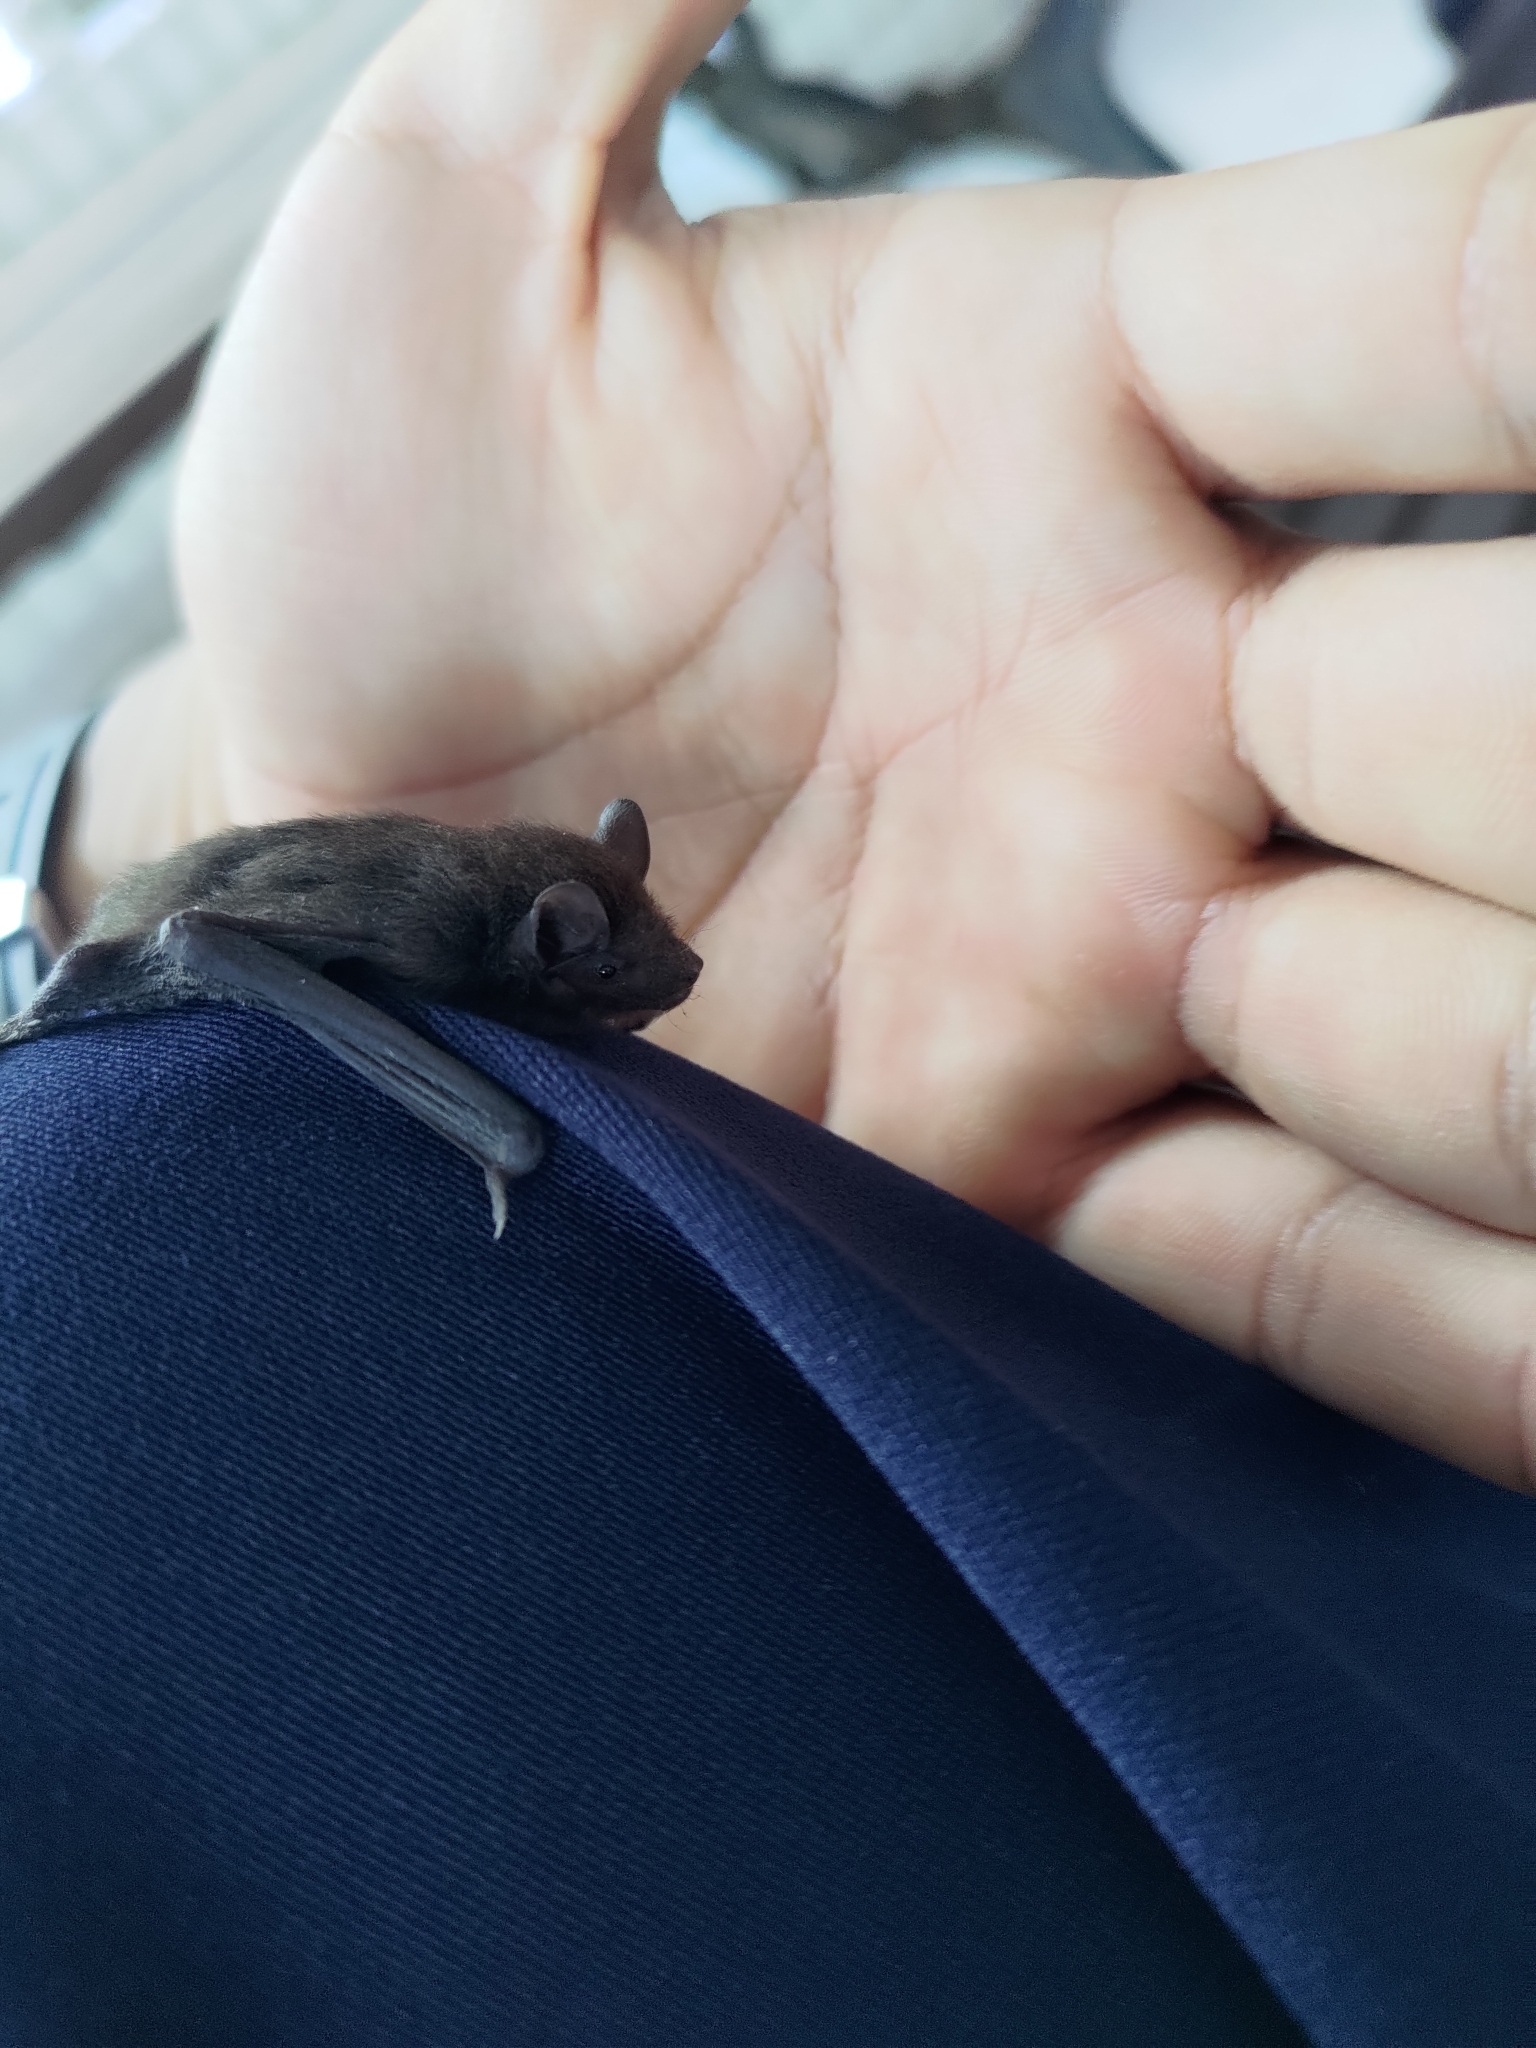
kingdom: Animalia
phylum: Chordata
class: Mammalia
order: Chiroptera
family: Vespertilionidae
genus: Pipistrellus
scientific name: Pipistrellus abramus
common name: Japanese pipistrelle
